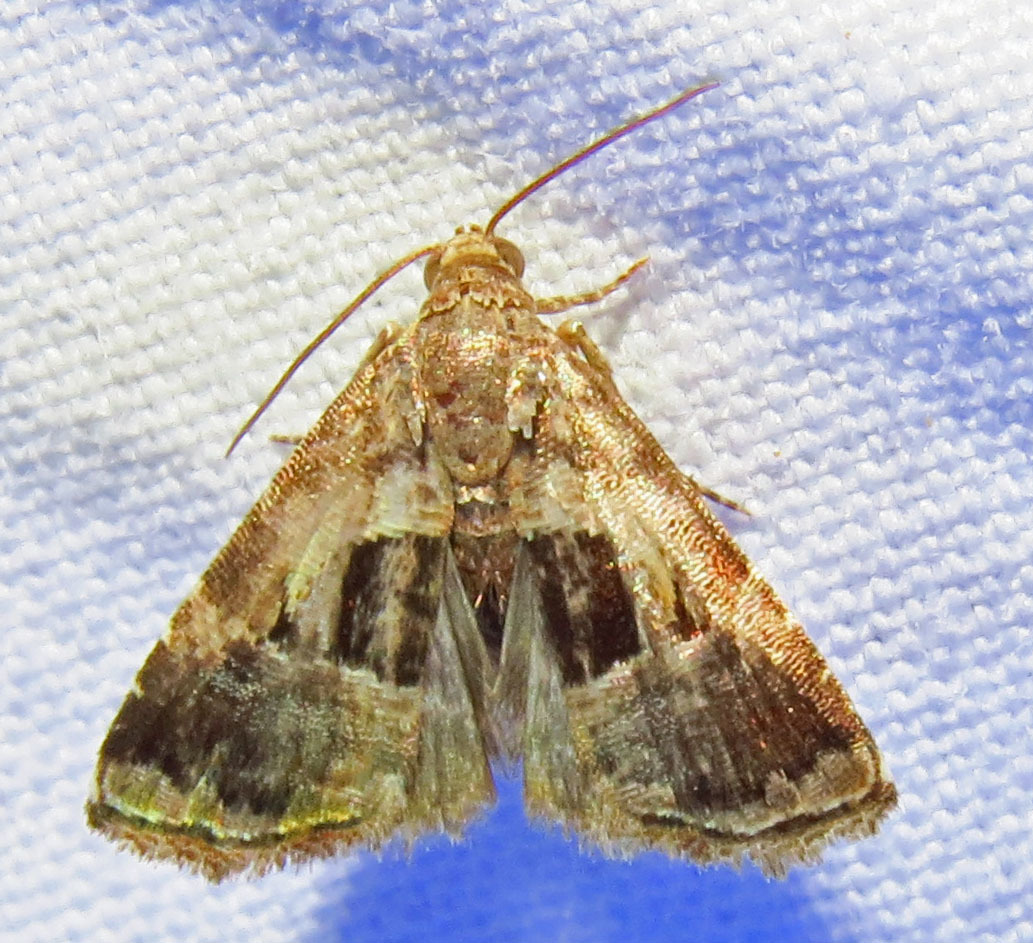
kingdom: Animalia
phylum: Arthropoda
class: Insecta
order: Lepidoptera
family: Noctuidae
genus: Tripudia
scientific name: Tripudia rectangula
